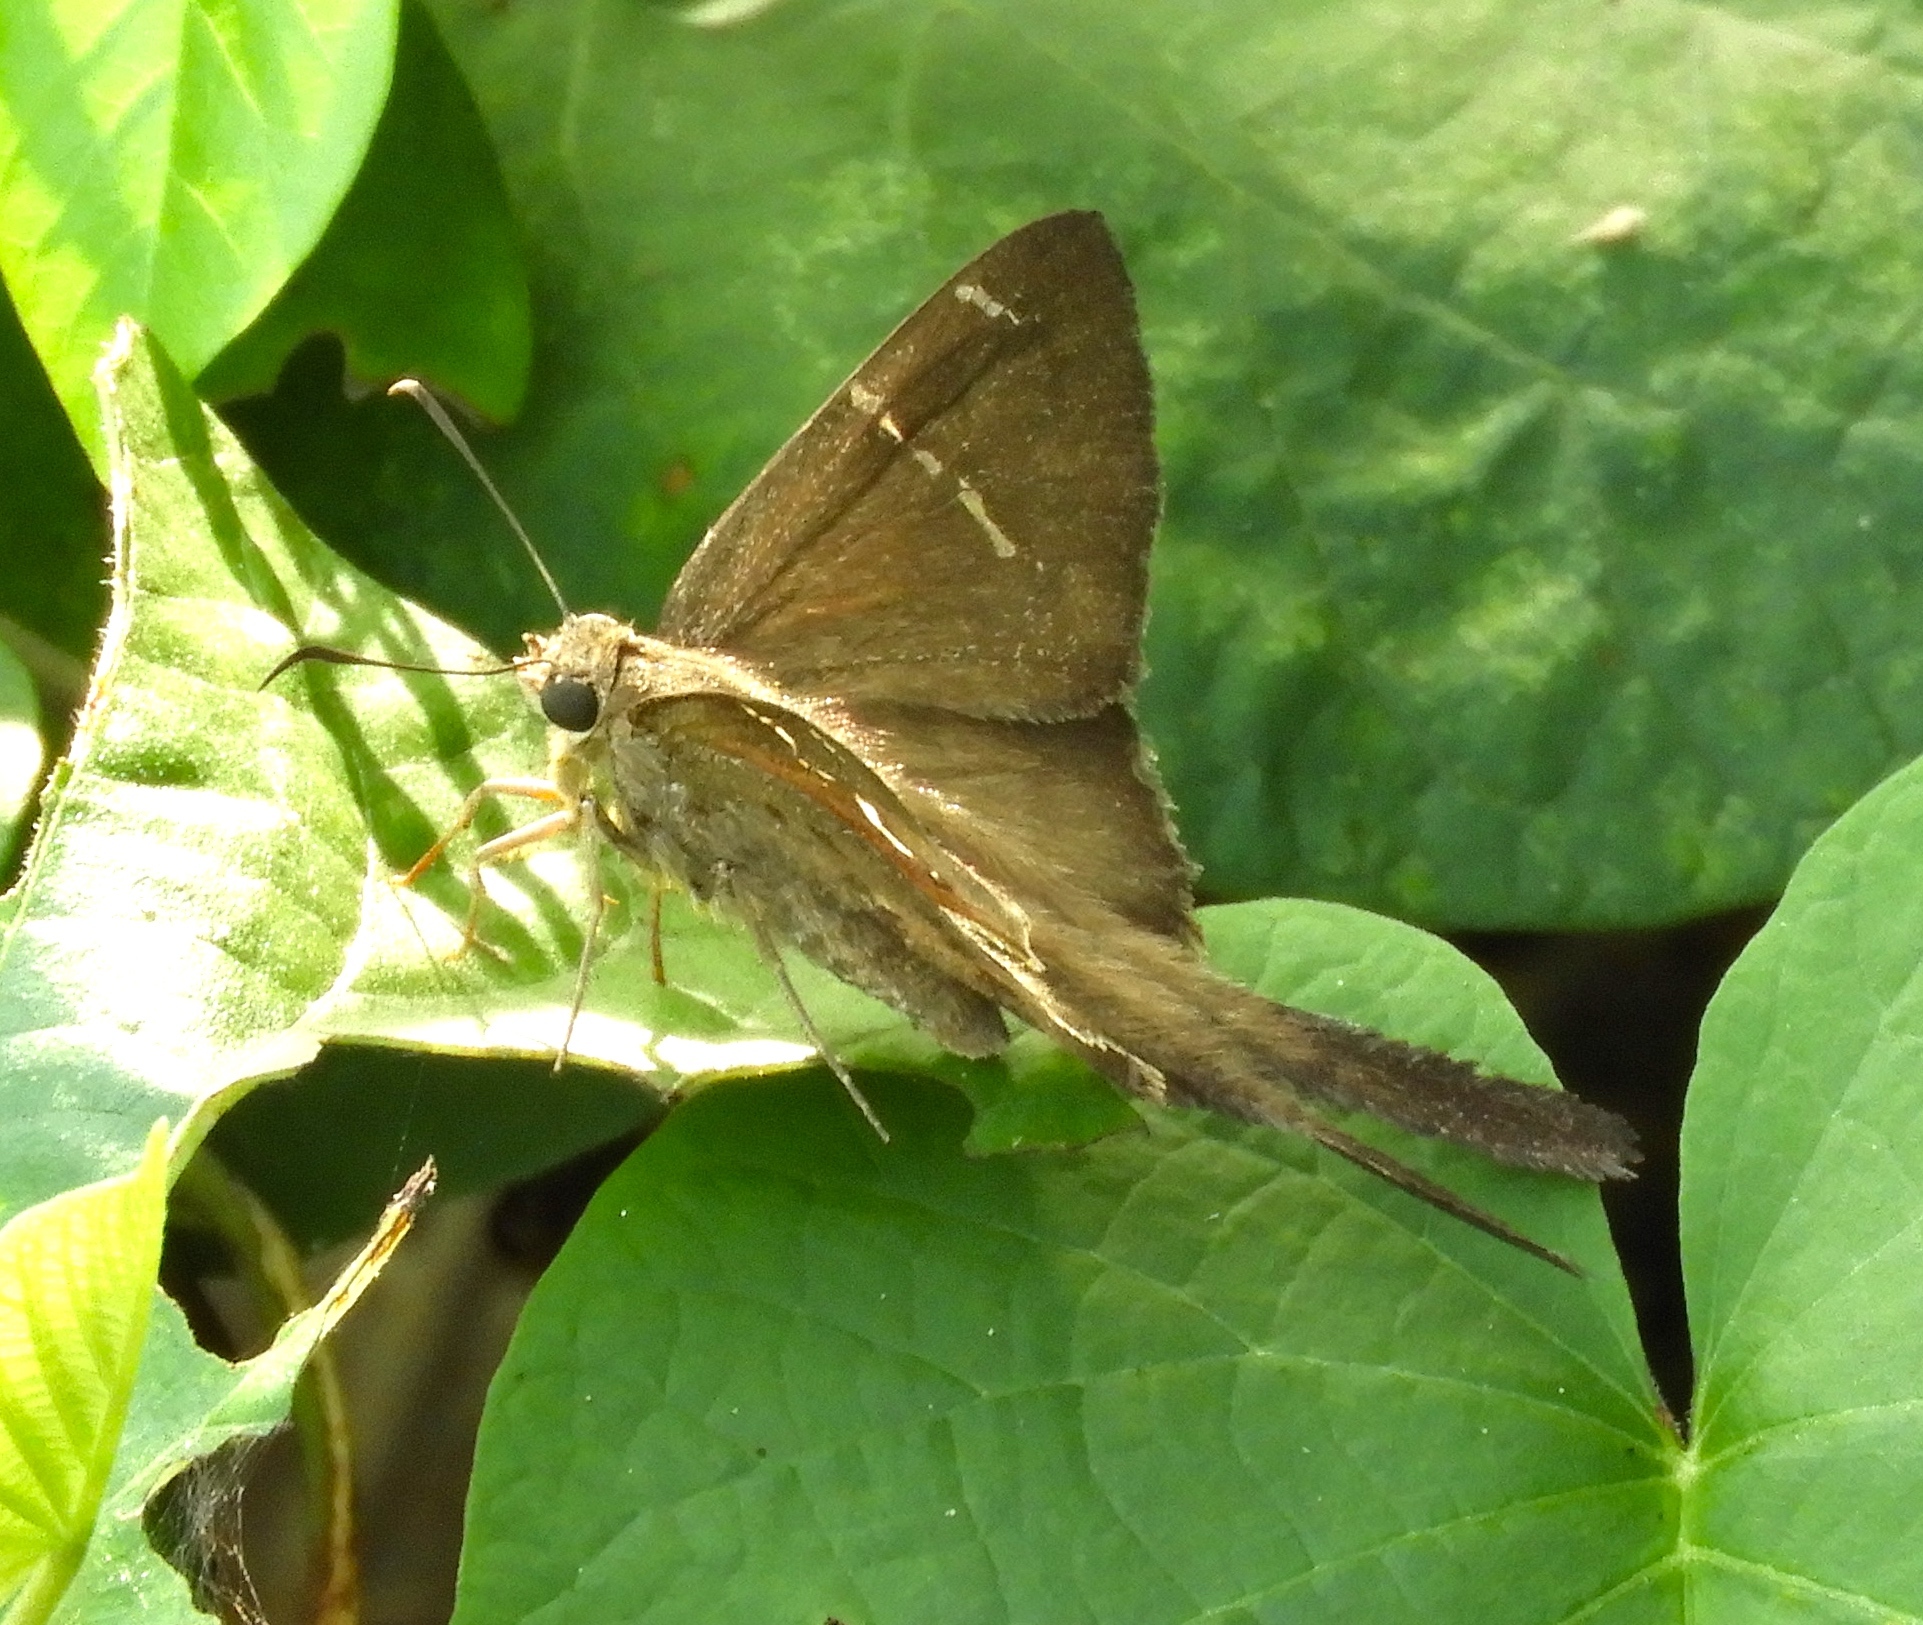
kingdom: Animalia
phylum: Arthropoda
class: Insecta
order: Lepidoptera
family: Hesperiidae
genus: Urbanus
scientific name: Urbanus procne
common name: Brown longtail
